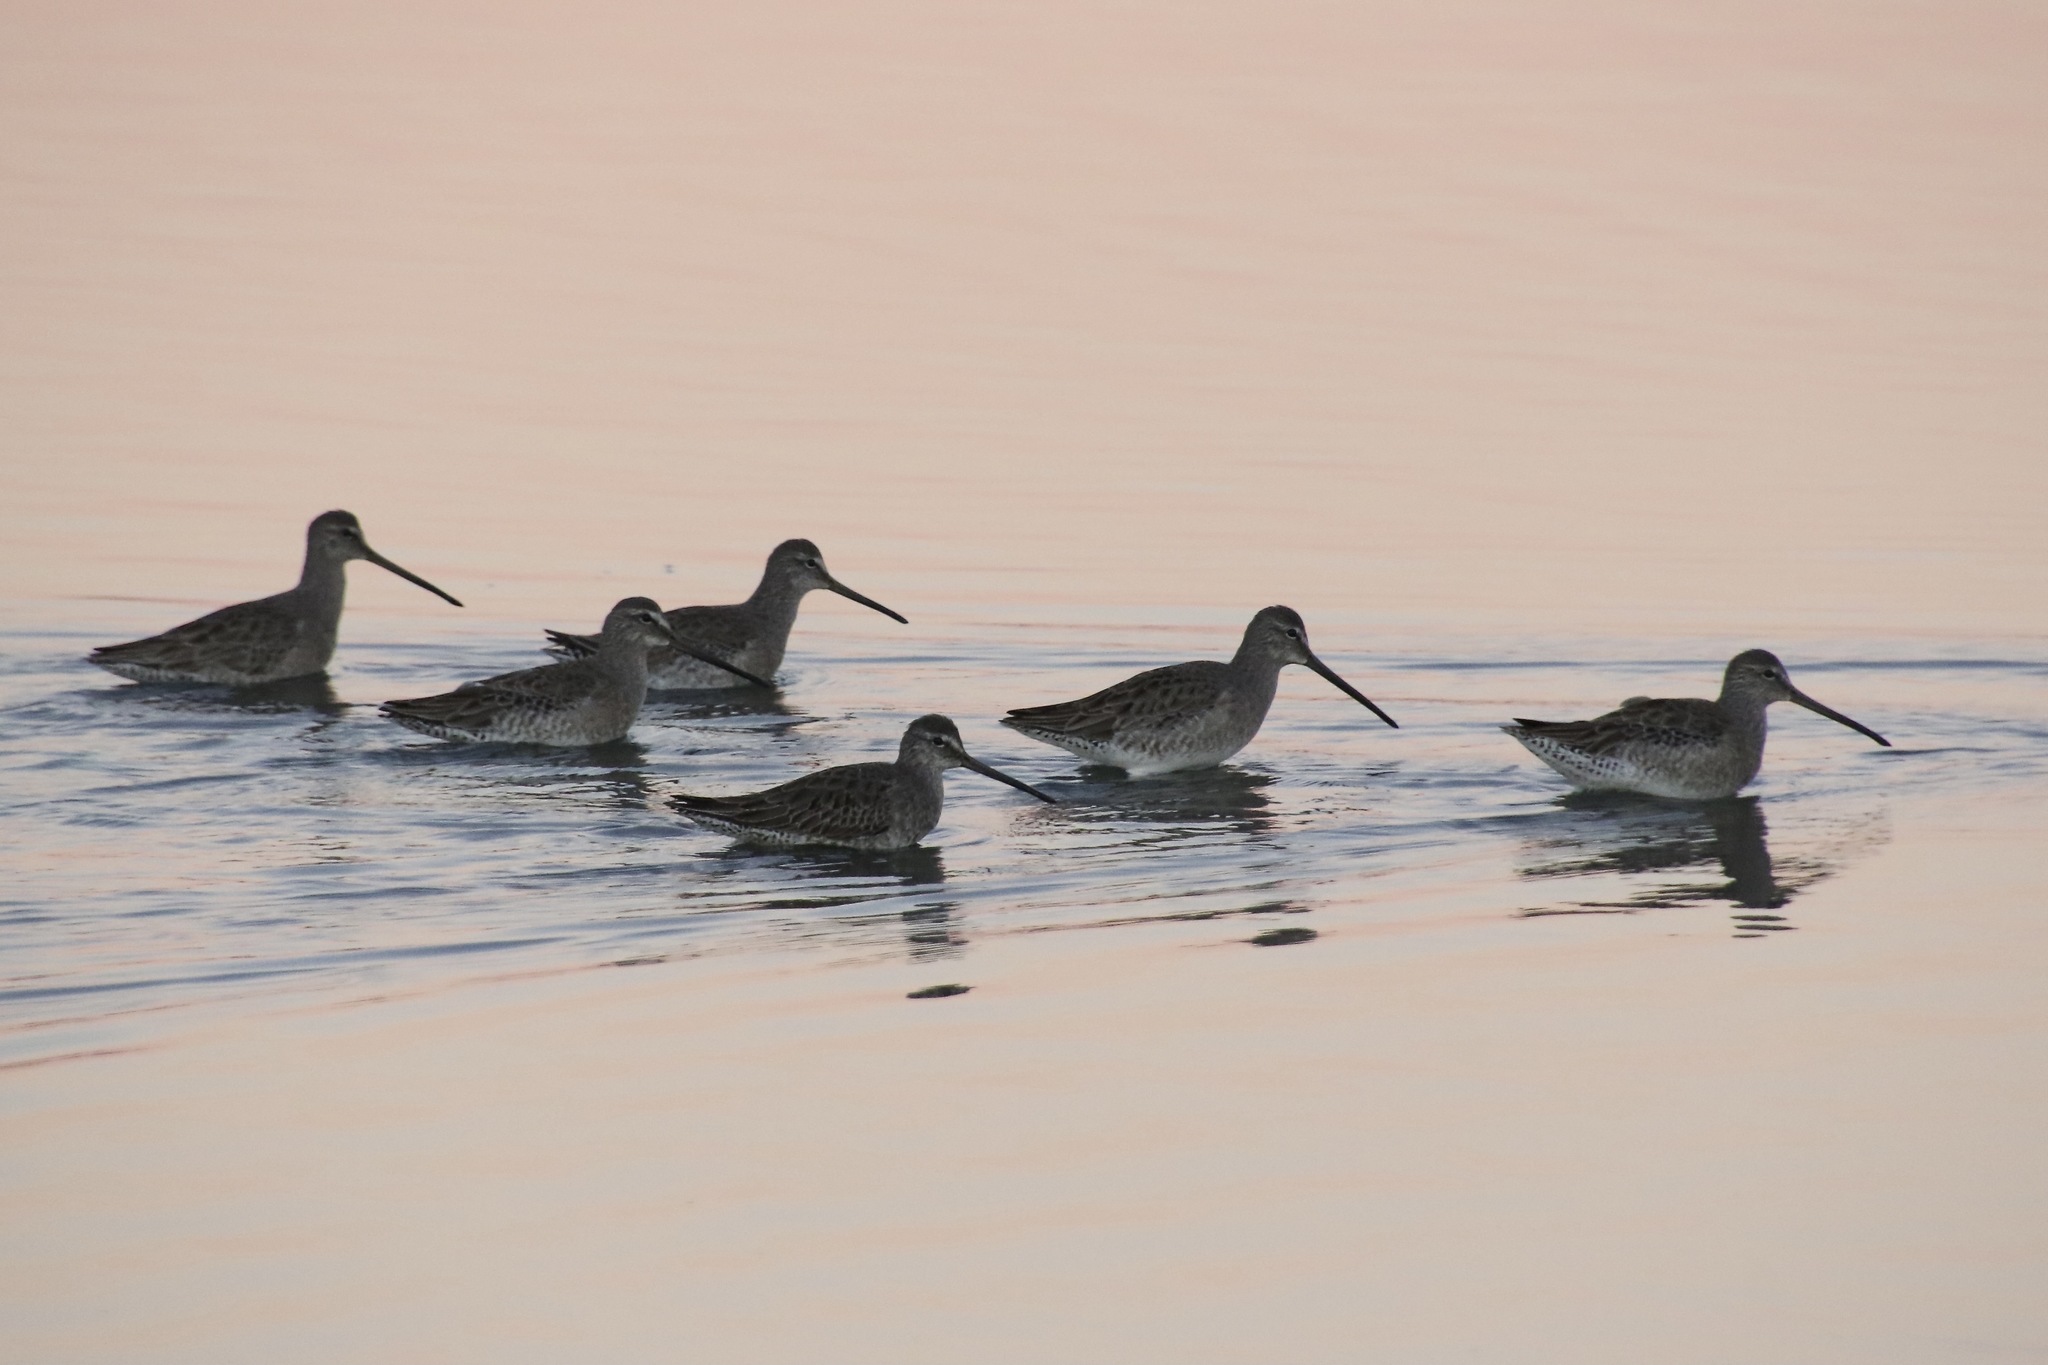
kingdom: Animalia
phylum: Chordata
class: Aves
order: Charadriiformes
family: Scolopacidae
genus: Limnodromus
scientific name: Limnodromus scolopaceus
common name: Long-billed dowitcher
